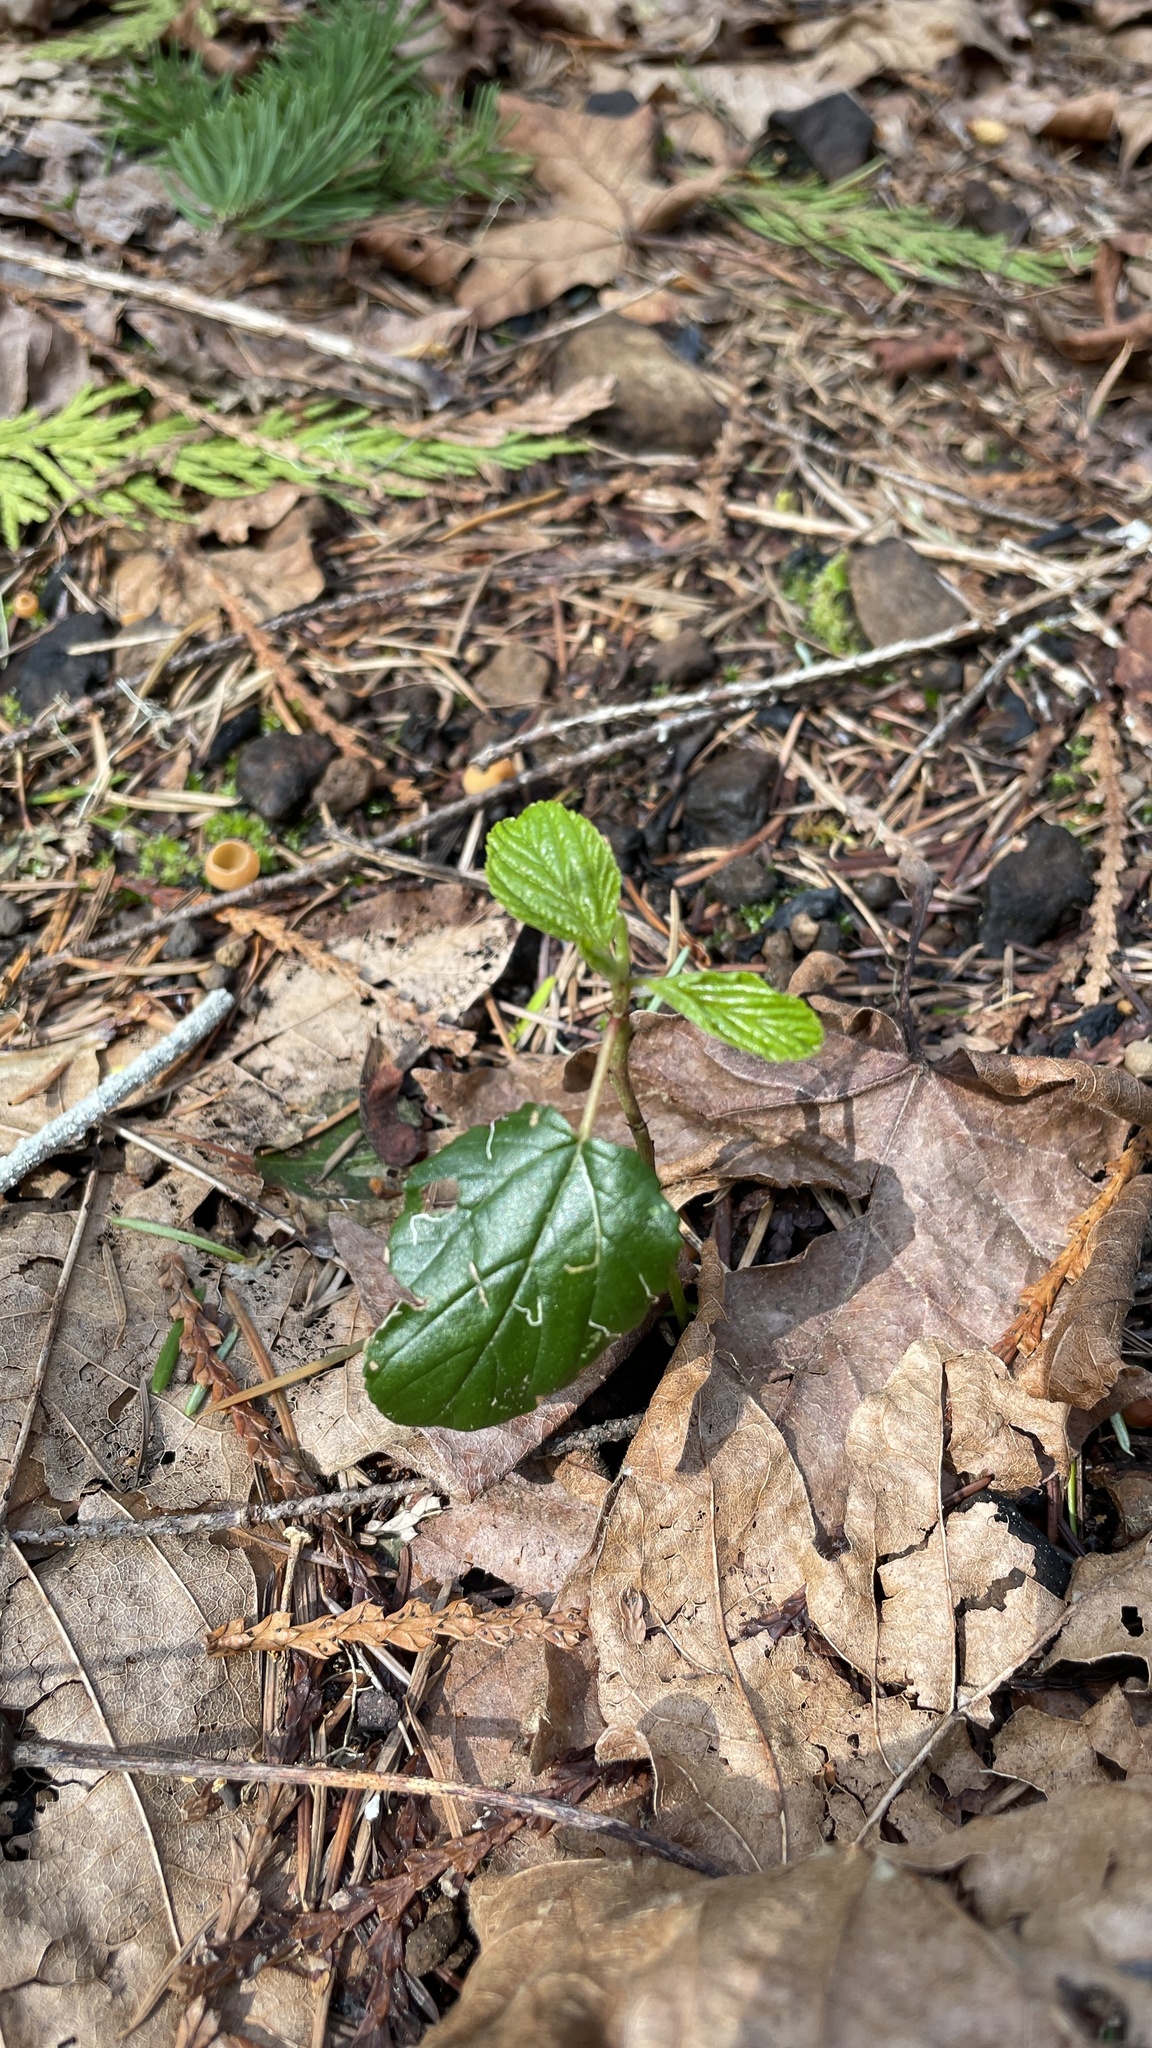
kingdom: Plantae
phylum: Tracheophyta
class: Magnoliopsida
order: Rosales
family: Rhamnaceae
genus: Ceanothus
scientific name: Ceanothus velutinus
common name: Snowbrush
